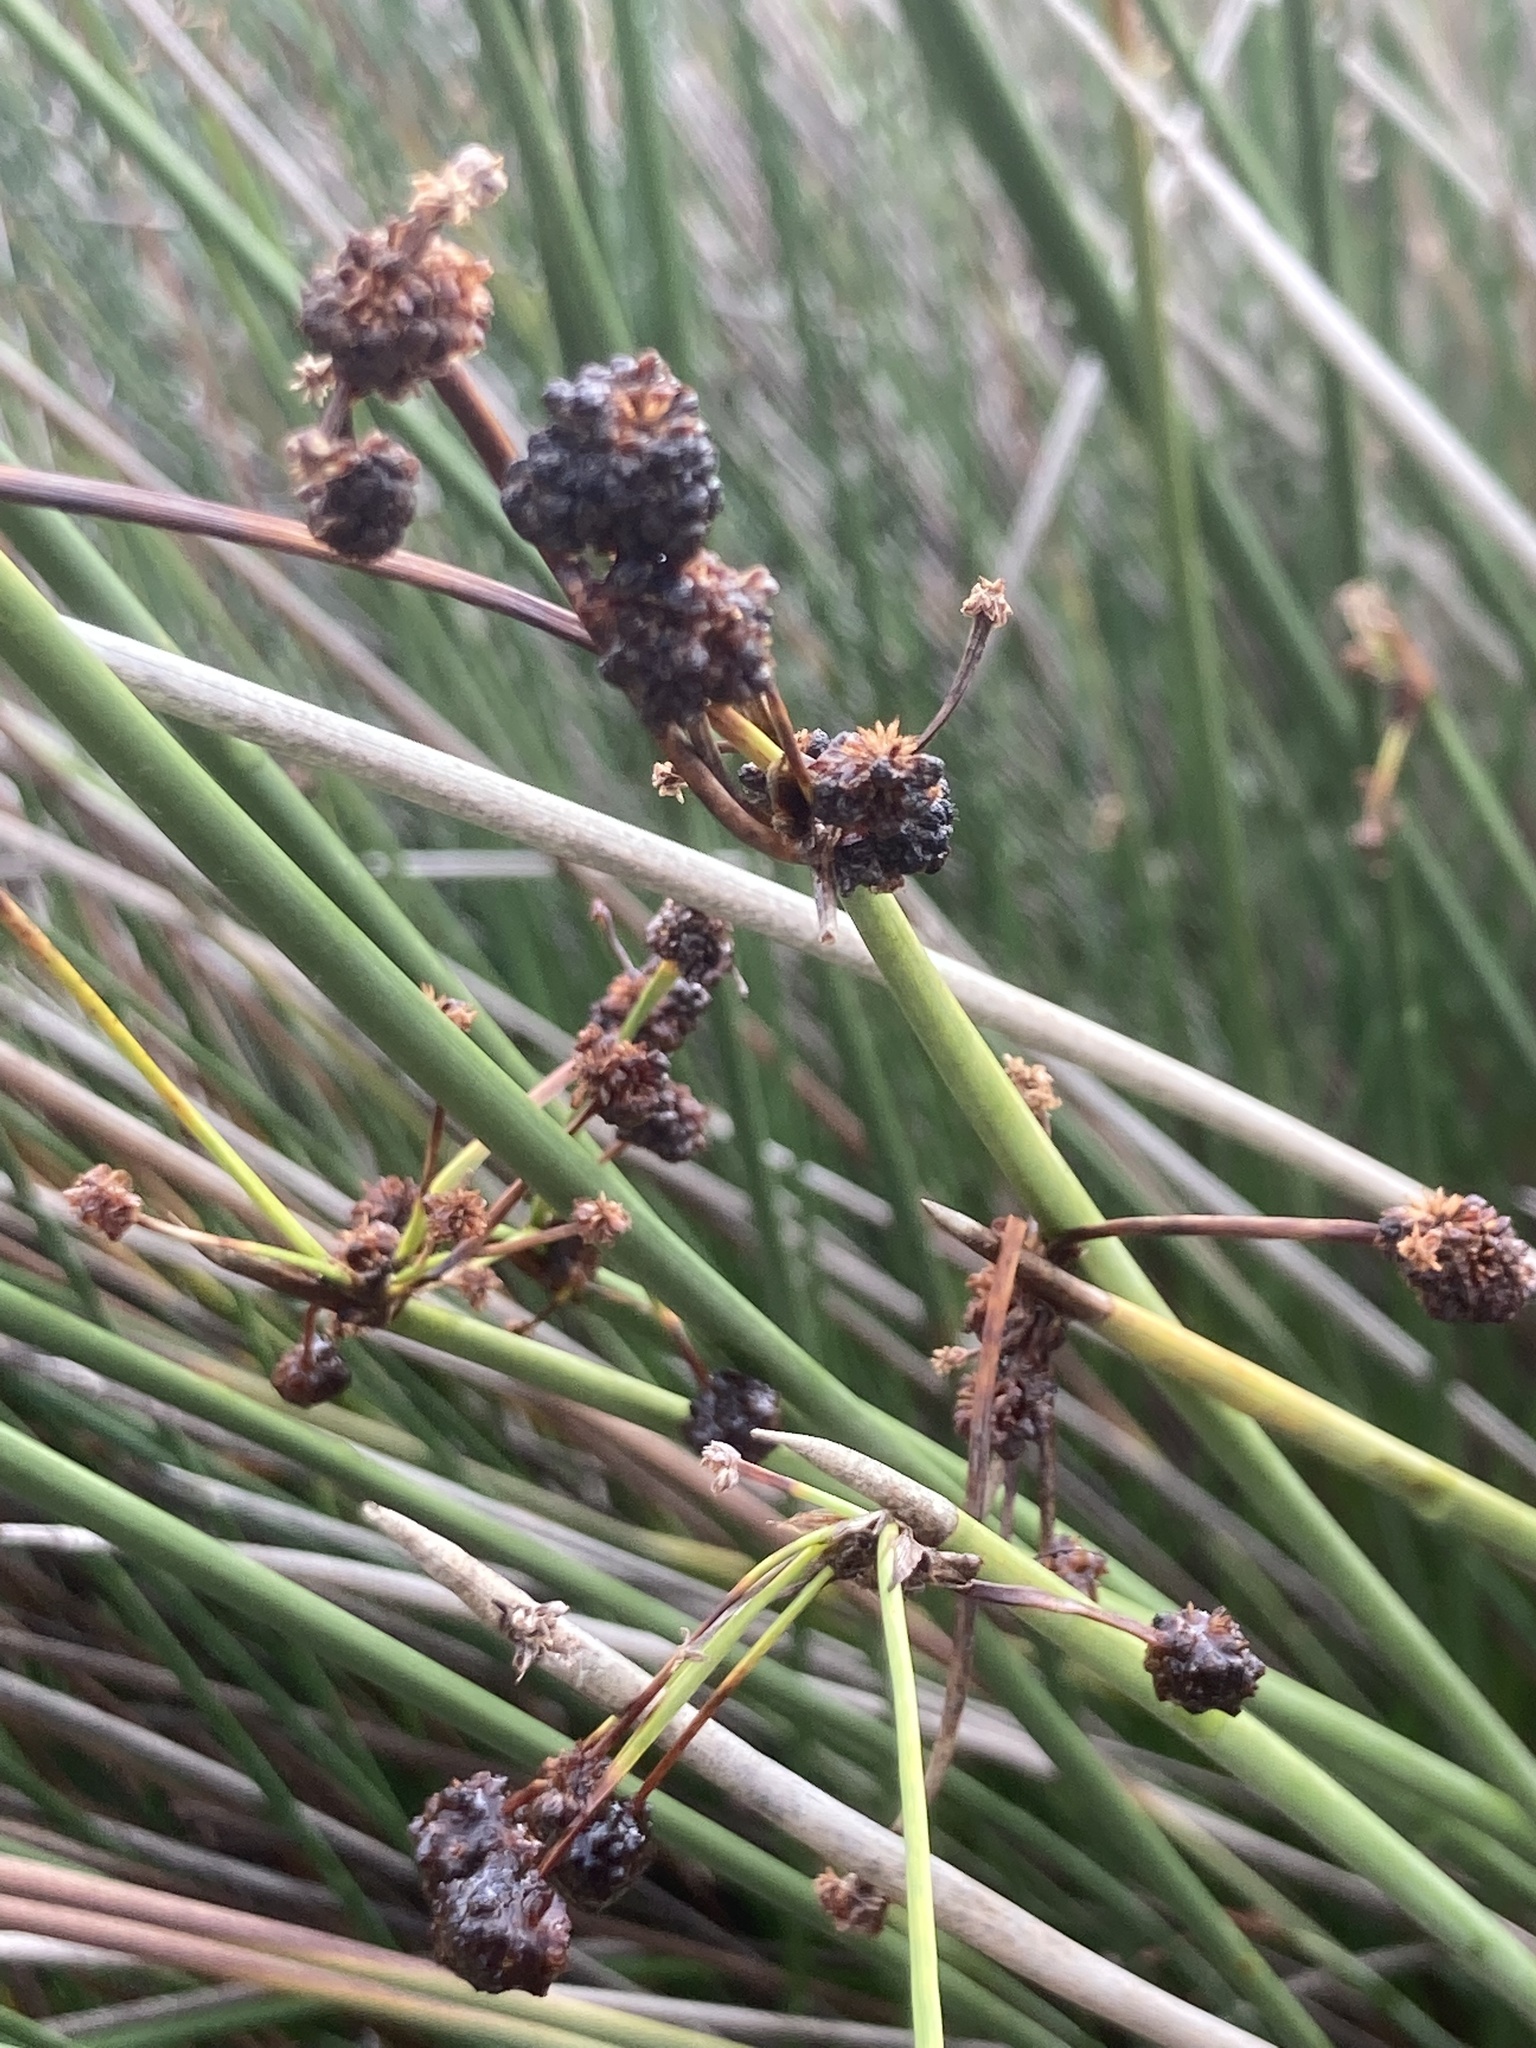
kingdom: Plantae
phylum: Tracheophyta
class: Liliopsida
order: Poales
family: Cyperaceae
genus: Scirpoides
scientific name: Scirpoides holoschoenus
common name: Round-headed club-rush
